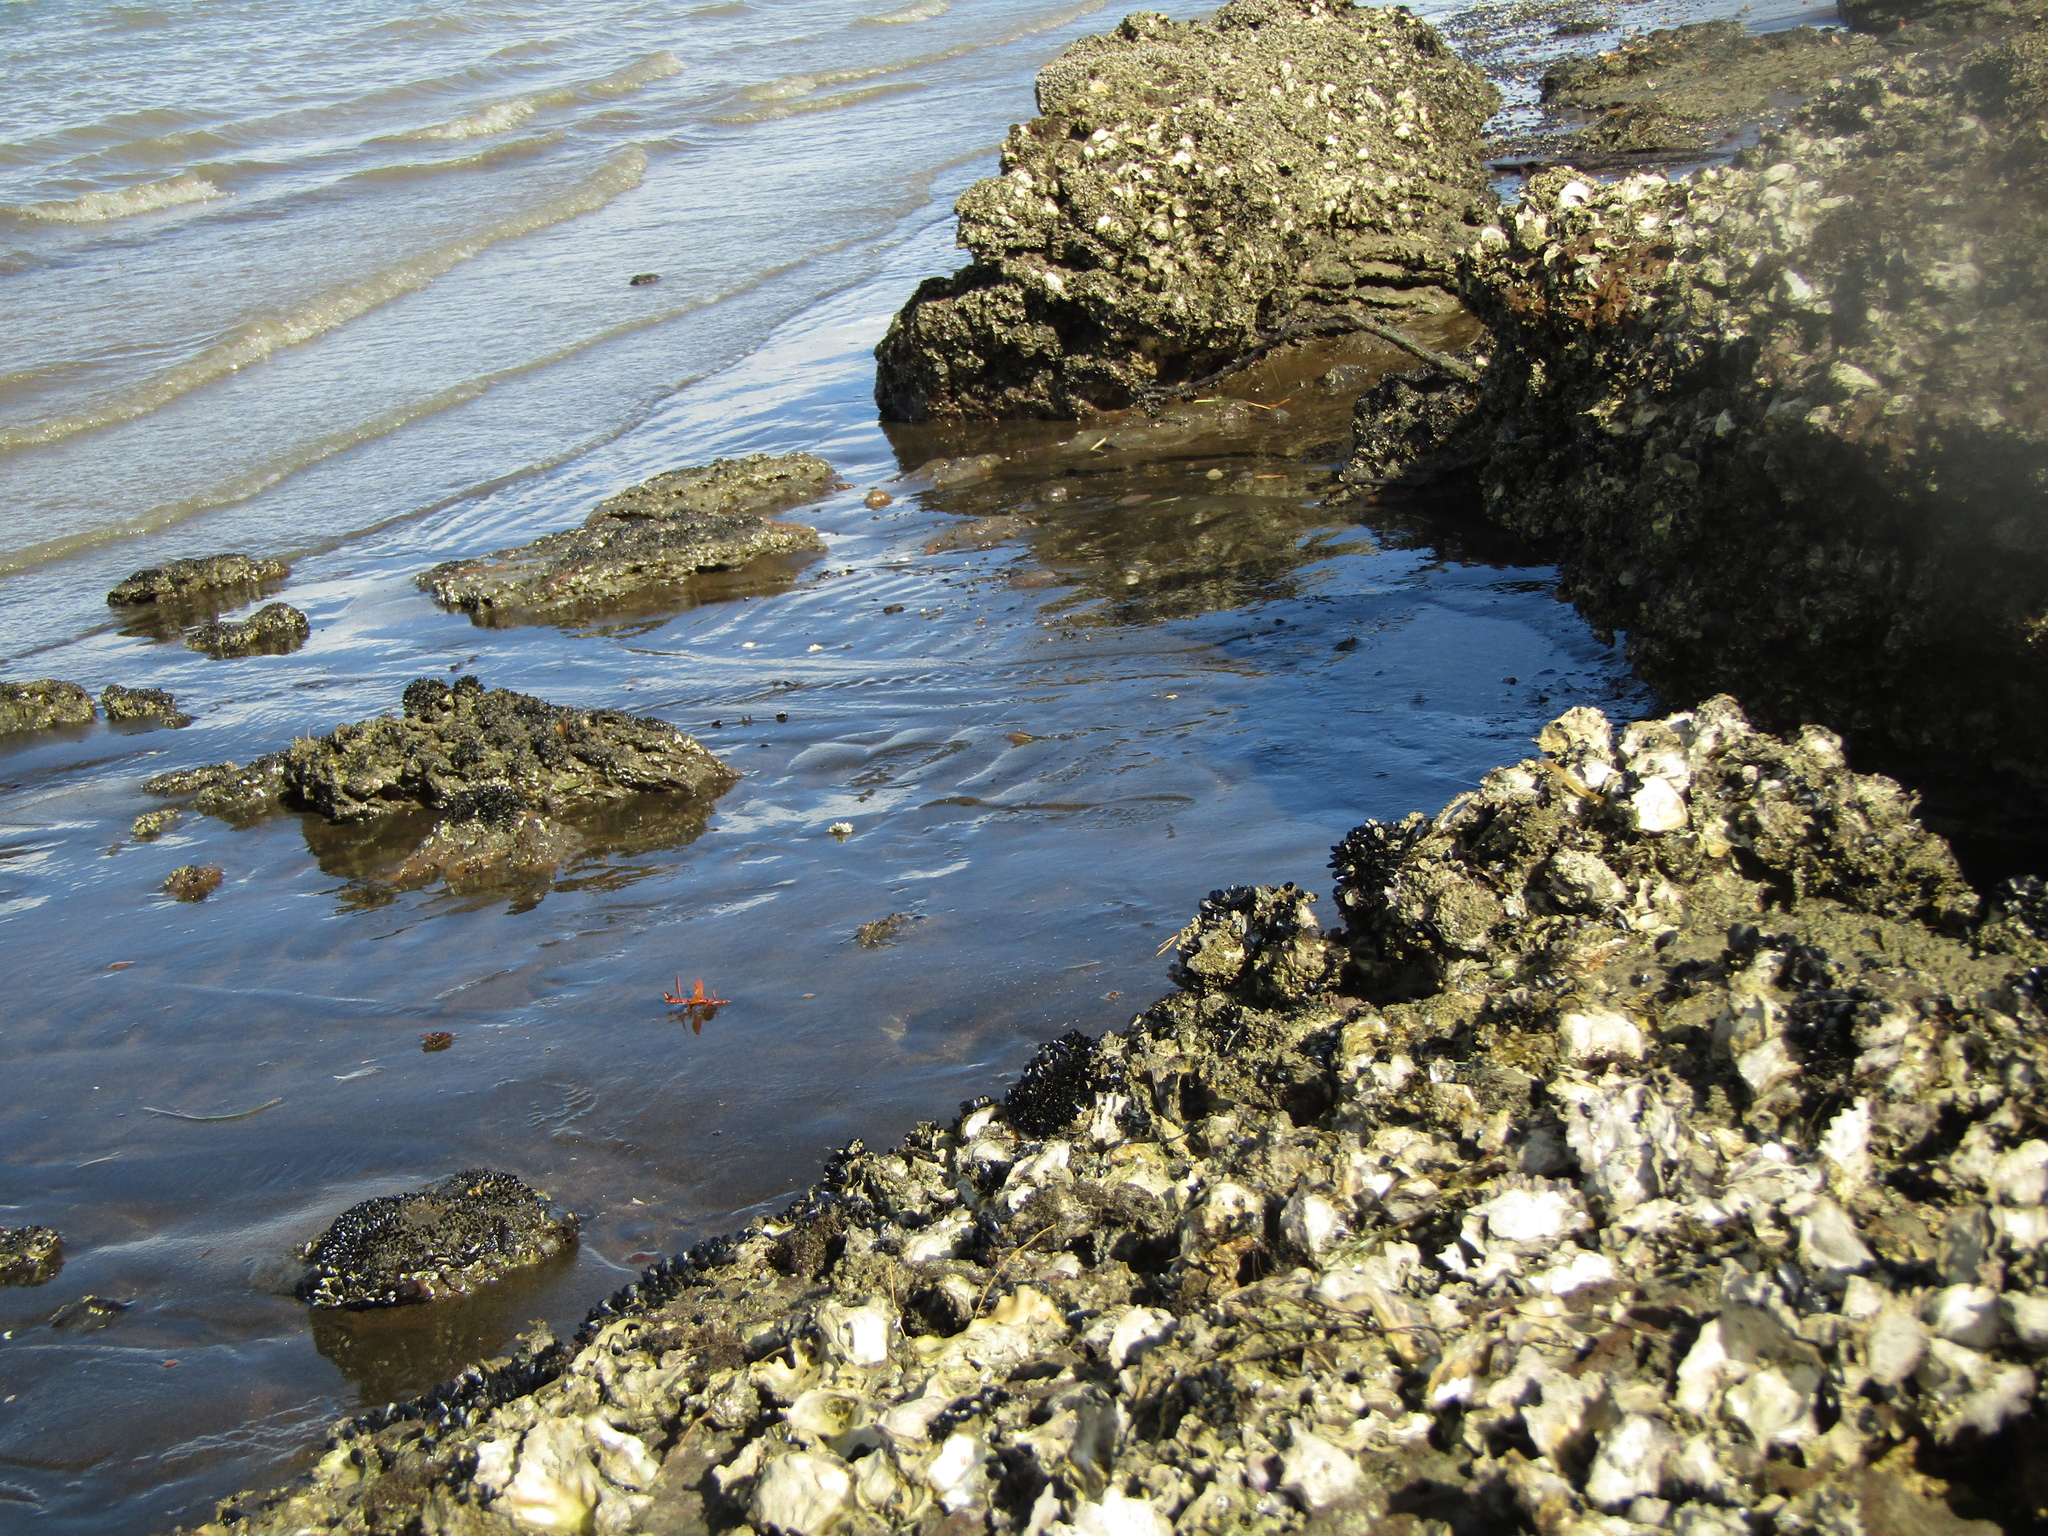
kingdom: Animalia
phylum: Mollusca
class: Bivalvia
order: Ostreida
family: Ostreidae
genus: Magallana
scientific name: Magallana gigas
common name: Pacific oyster
